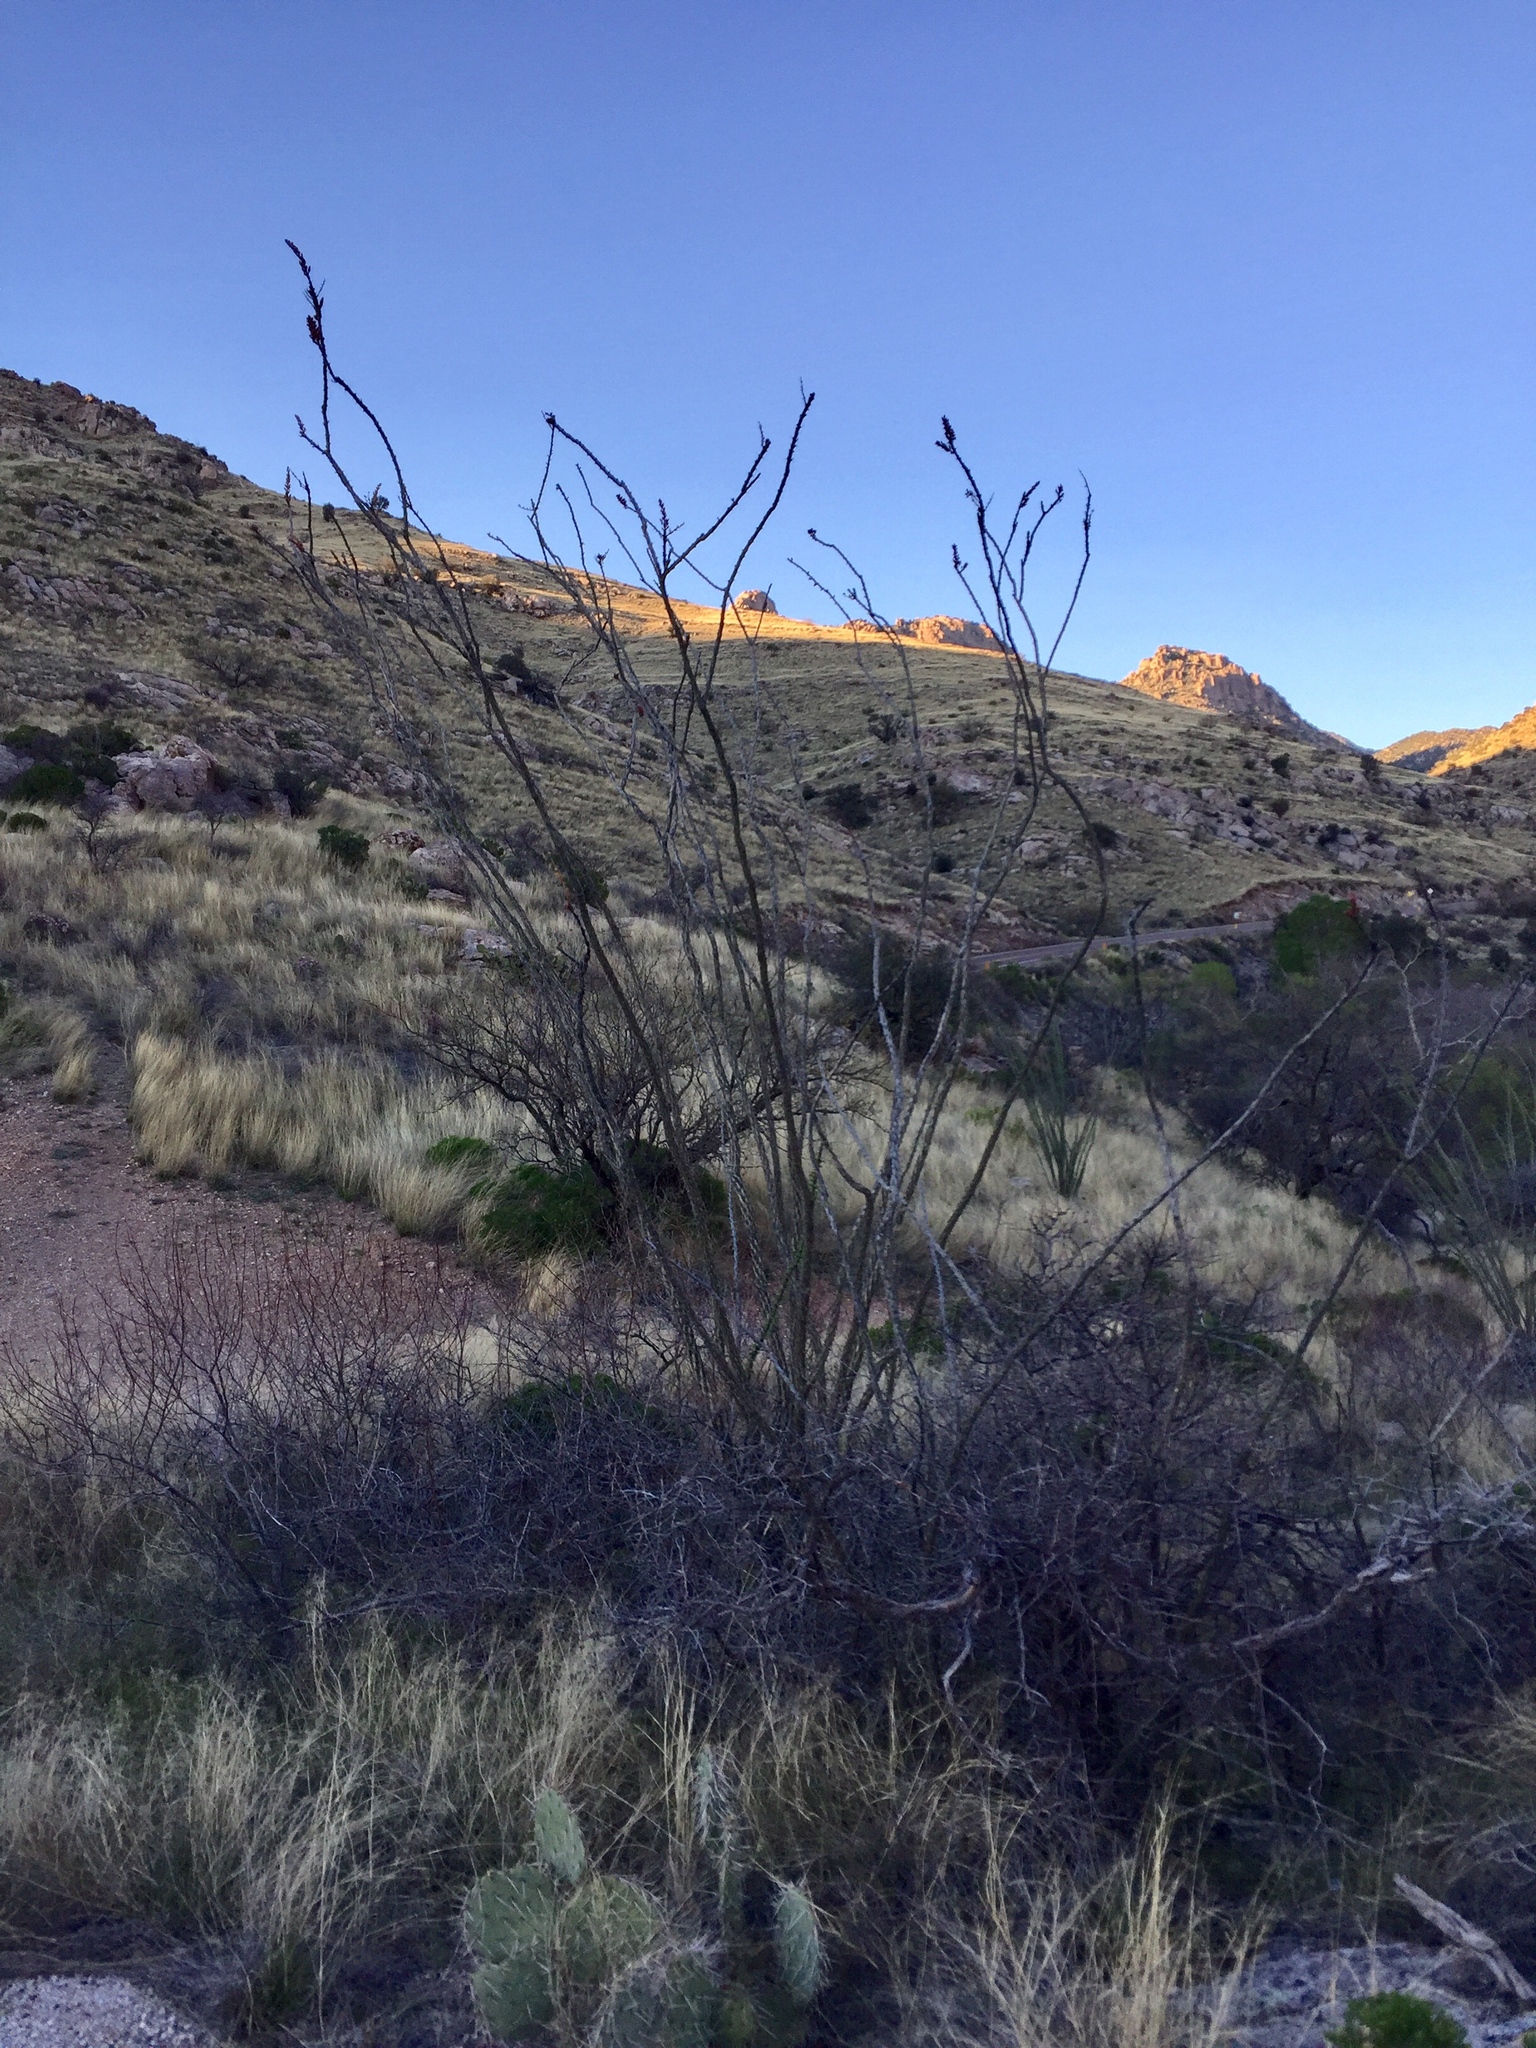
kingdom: Plantae
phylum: Tracheophyta
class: Magnoliopsida
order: Ericales
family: Fouquieriaceae
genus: Fouquieria
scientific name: Fouquieria splendens
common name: Vine-cactus
